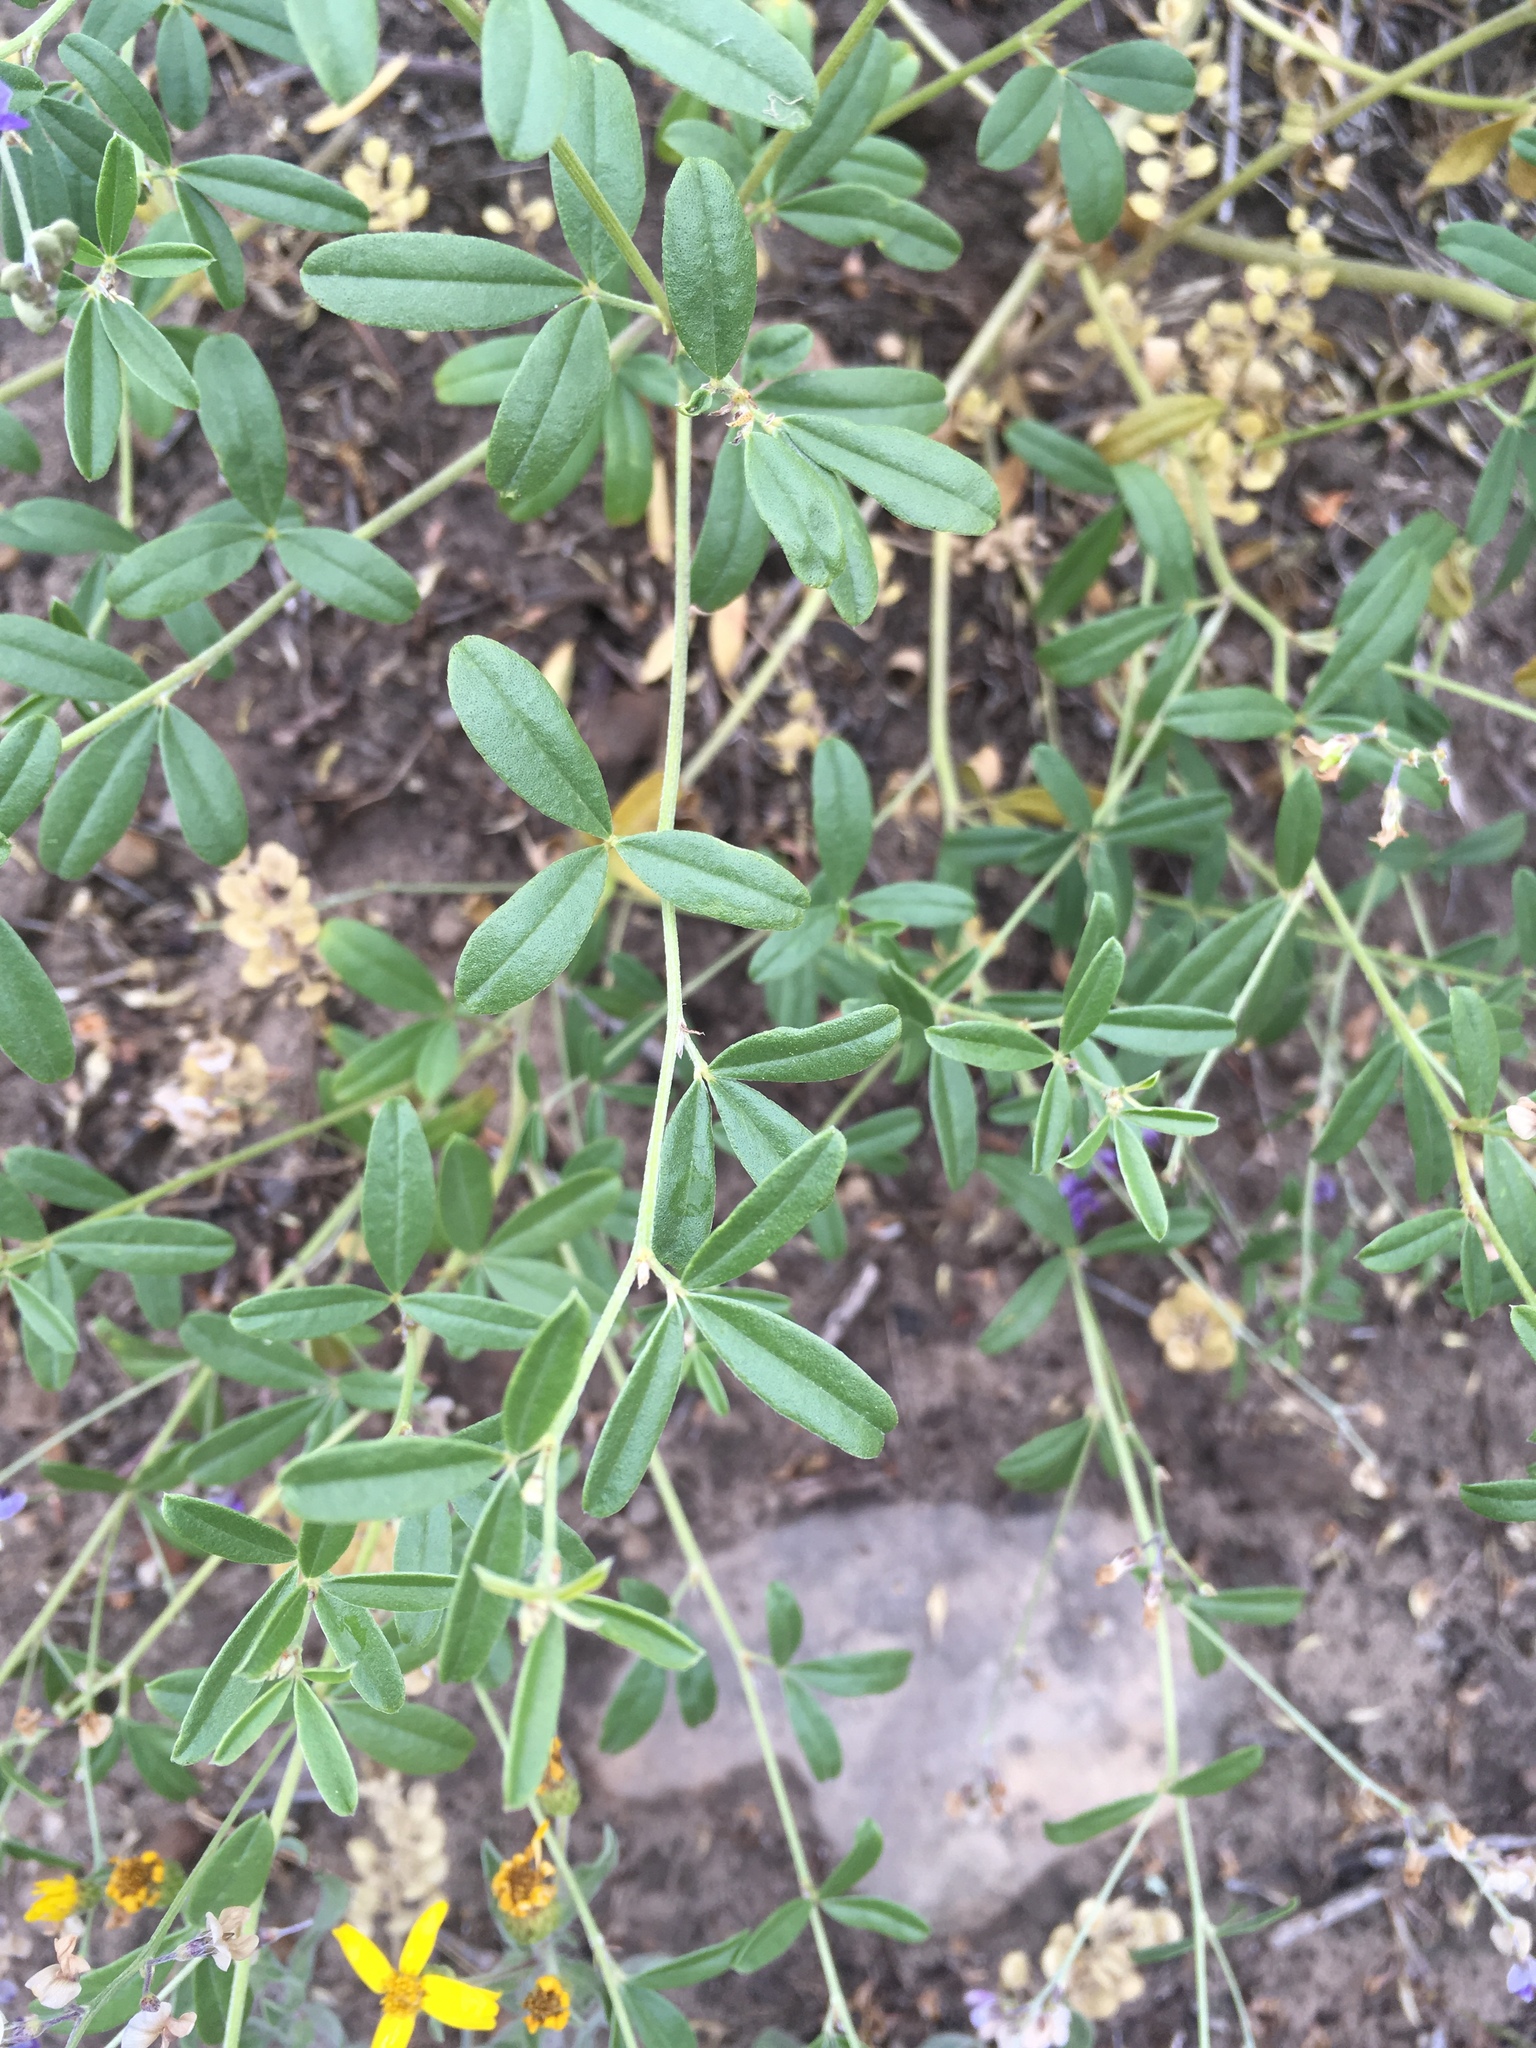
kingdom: Plantae
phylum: Tracheophyta
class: Magnoliopsida
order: Fabales
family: Fabaceae
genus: Pediomelum
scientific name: Pediomelum tenuiflorum
